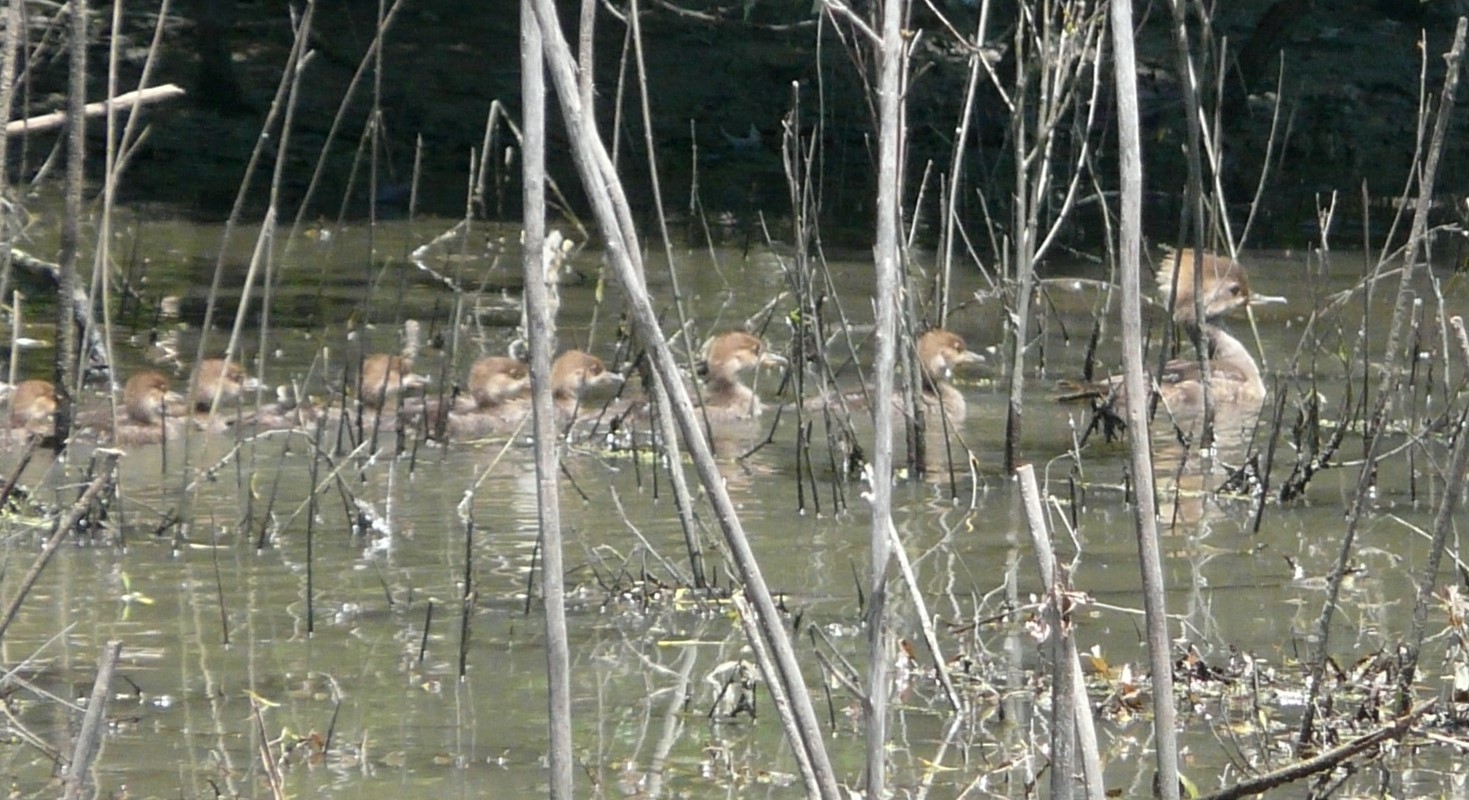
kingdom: Animalia
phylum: Chordata
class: Aves
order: Anseriformes
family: Anatidae
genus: Lophodytes
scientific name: Lophodytes cucullatus
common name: Hooded merganser
